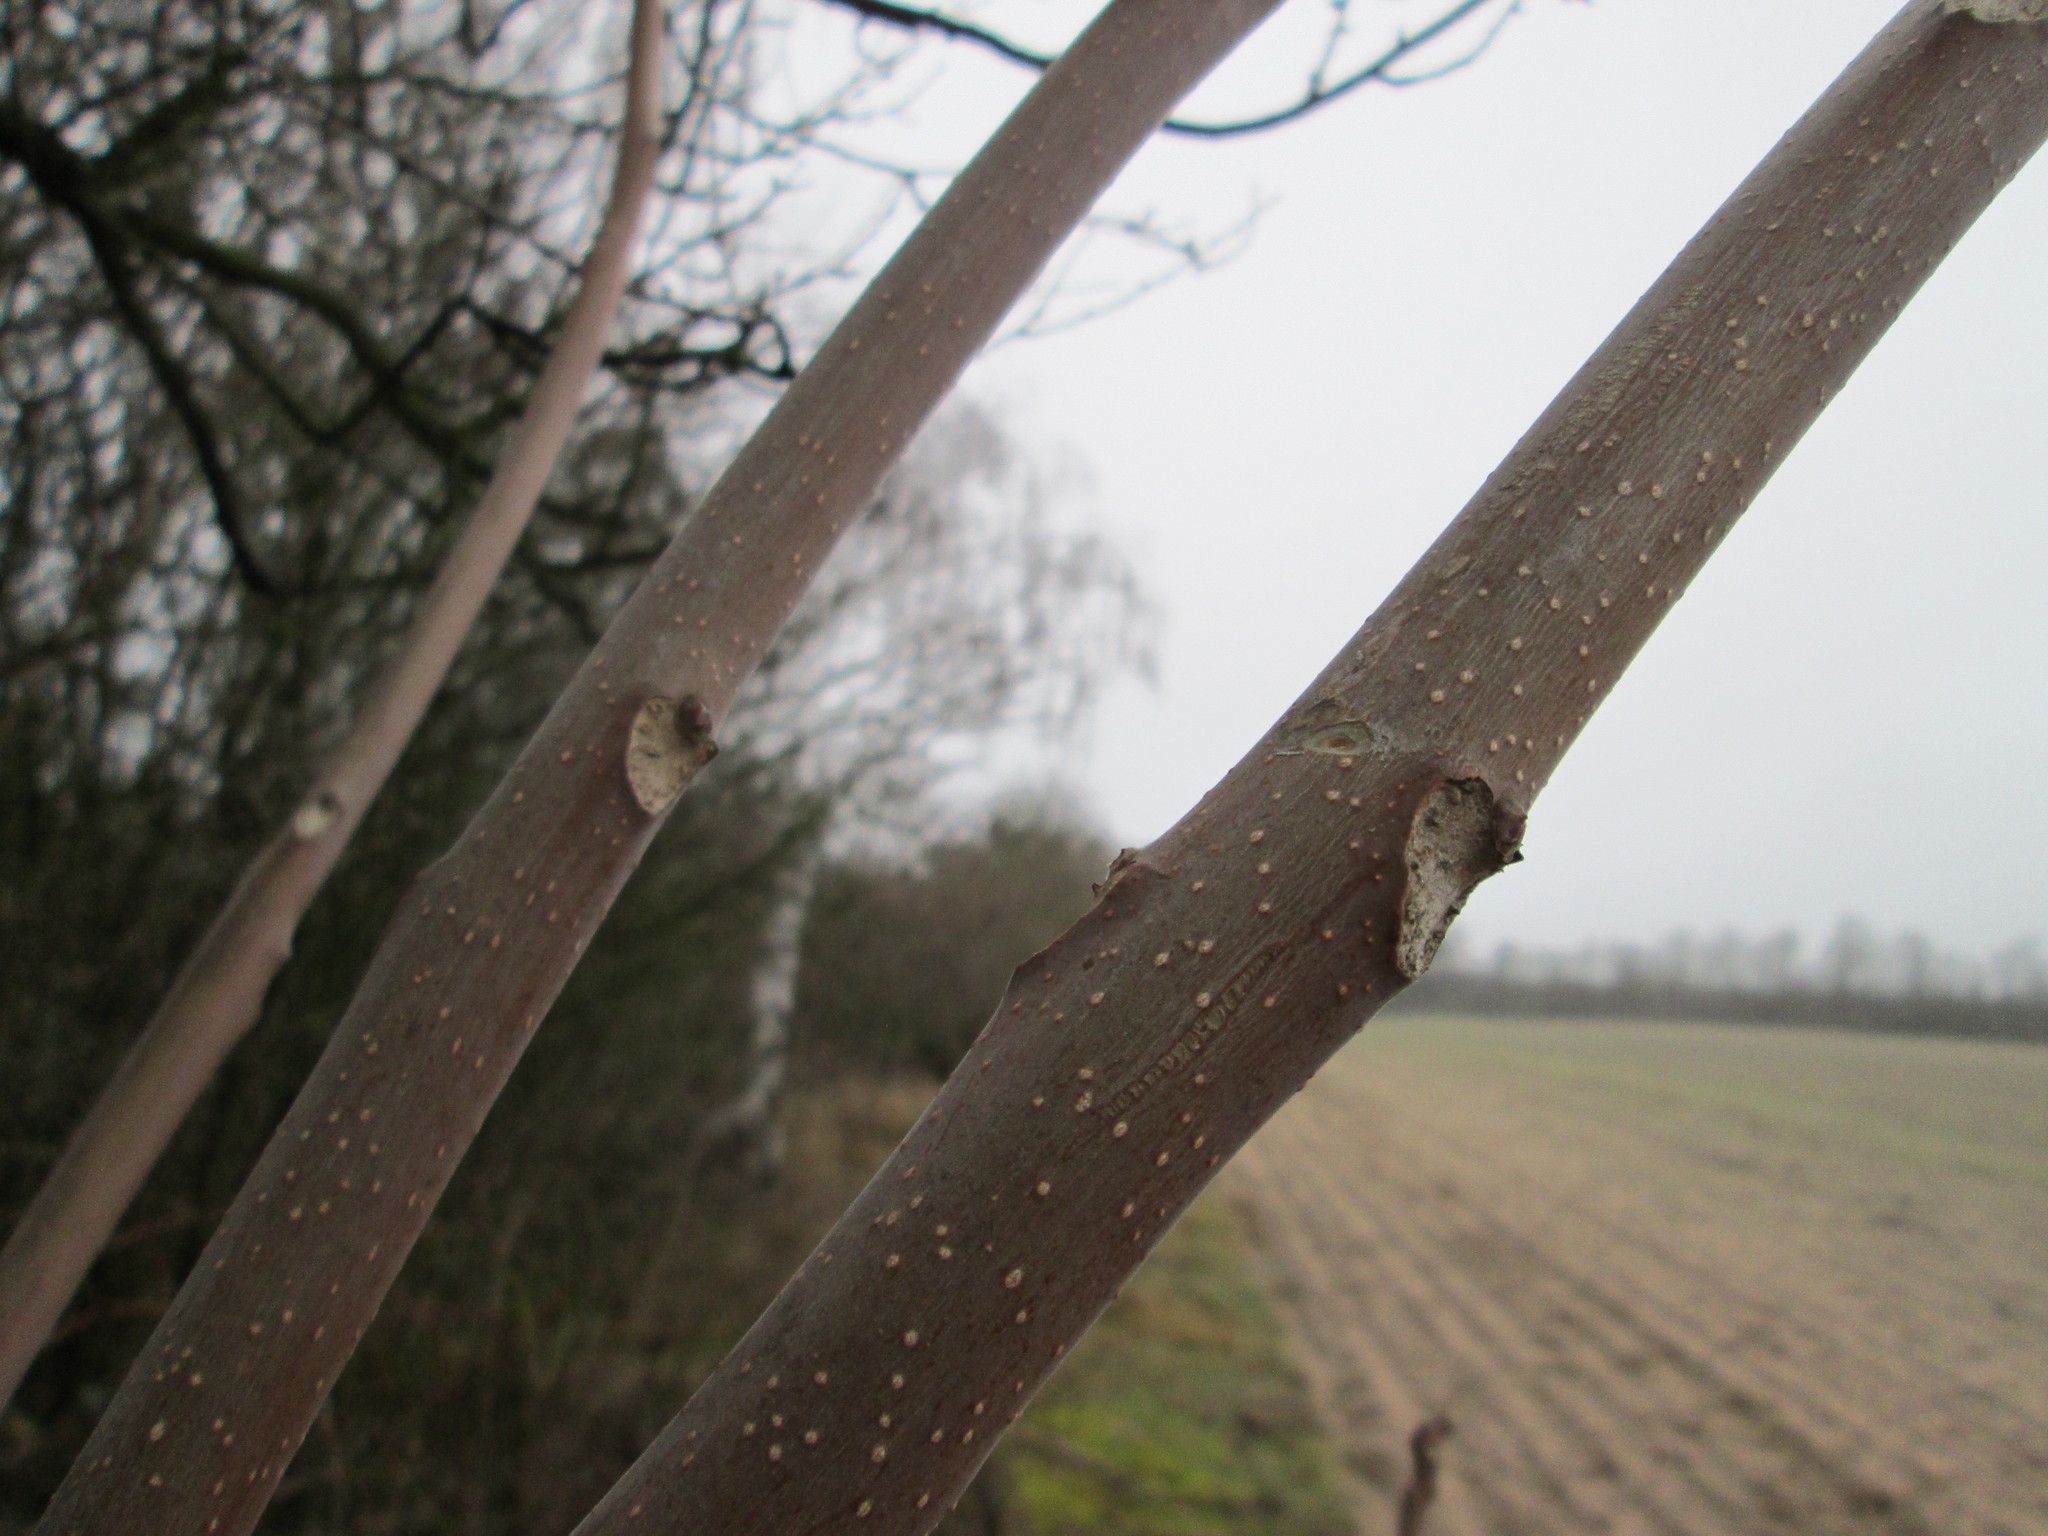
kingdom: Plantae
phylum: Tracheophyta
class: Magnoliopsida
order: Sapindales
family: Simaroubaceae
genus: Ailanthus
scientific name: Ailanthus altissima
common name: Tree-of-heaven
